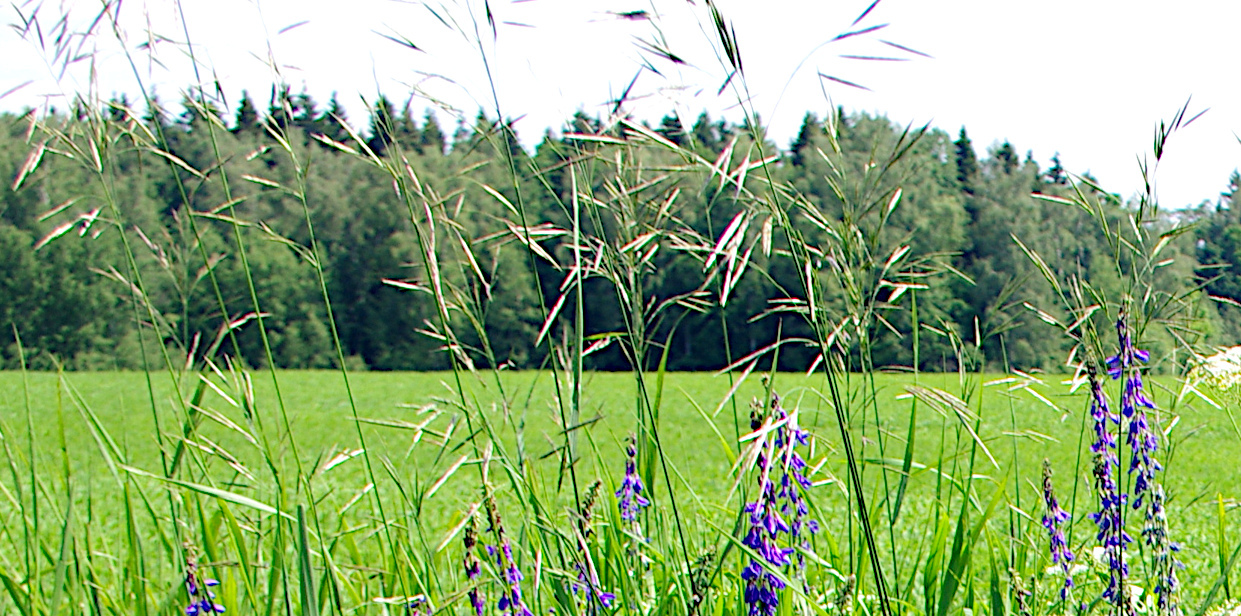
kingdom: Plantae
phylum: Tracheophyta
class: Liliopsida
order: Poales
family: Poaceae
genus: Bromus
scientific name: Bromus inermis
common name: Smooth brome
